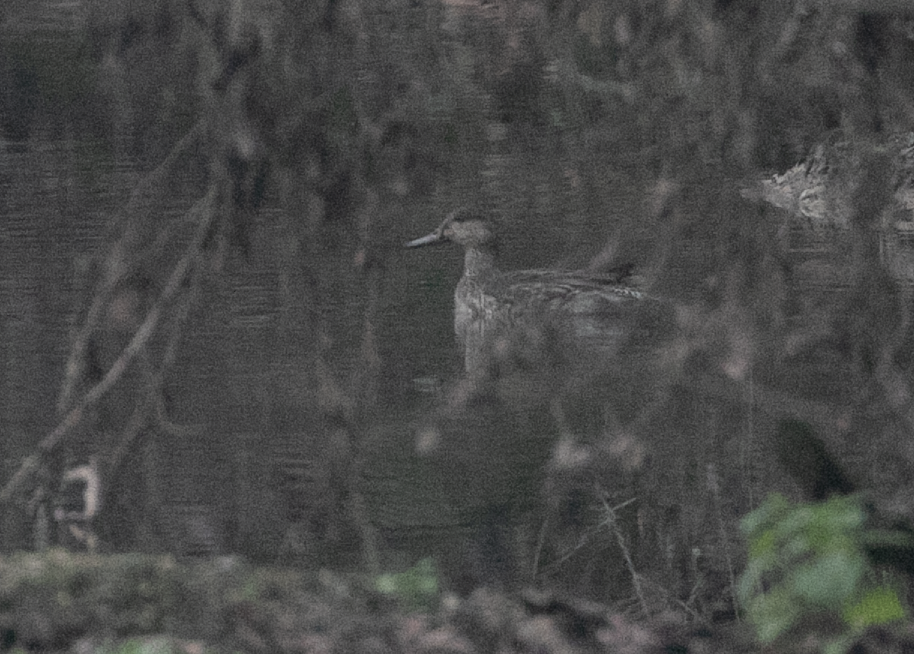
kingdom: Animalia
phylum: Chordata
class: Aves
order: Anseriformes
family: Anatidae
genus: Anas
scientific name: Anas crecca
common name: Eurasian teal
